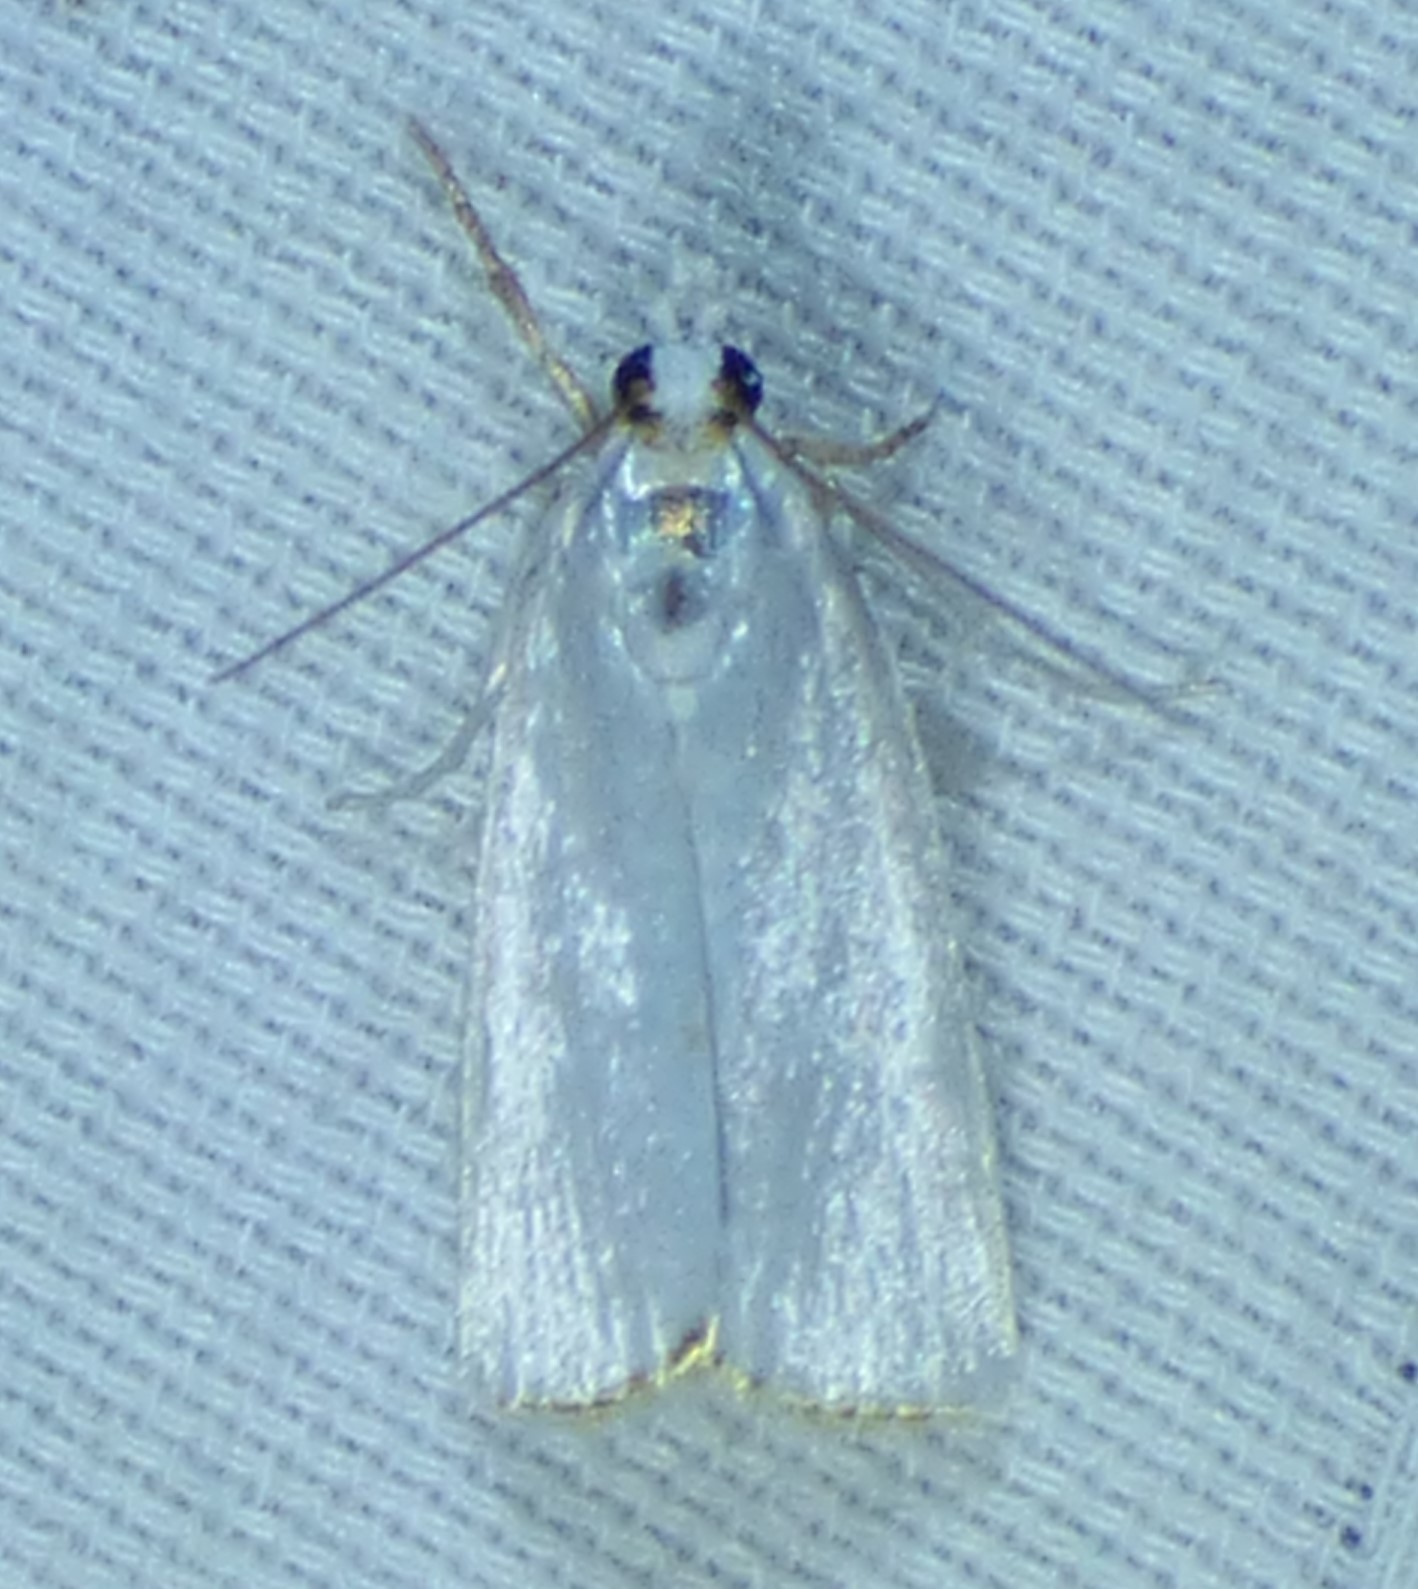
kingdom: Animalia
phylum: Arthropoda
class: Insecta
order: Lepidoptera
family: Crambidae
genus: Argyria
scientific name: Argyria nivalis
